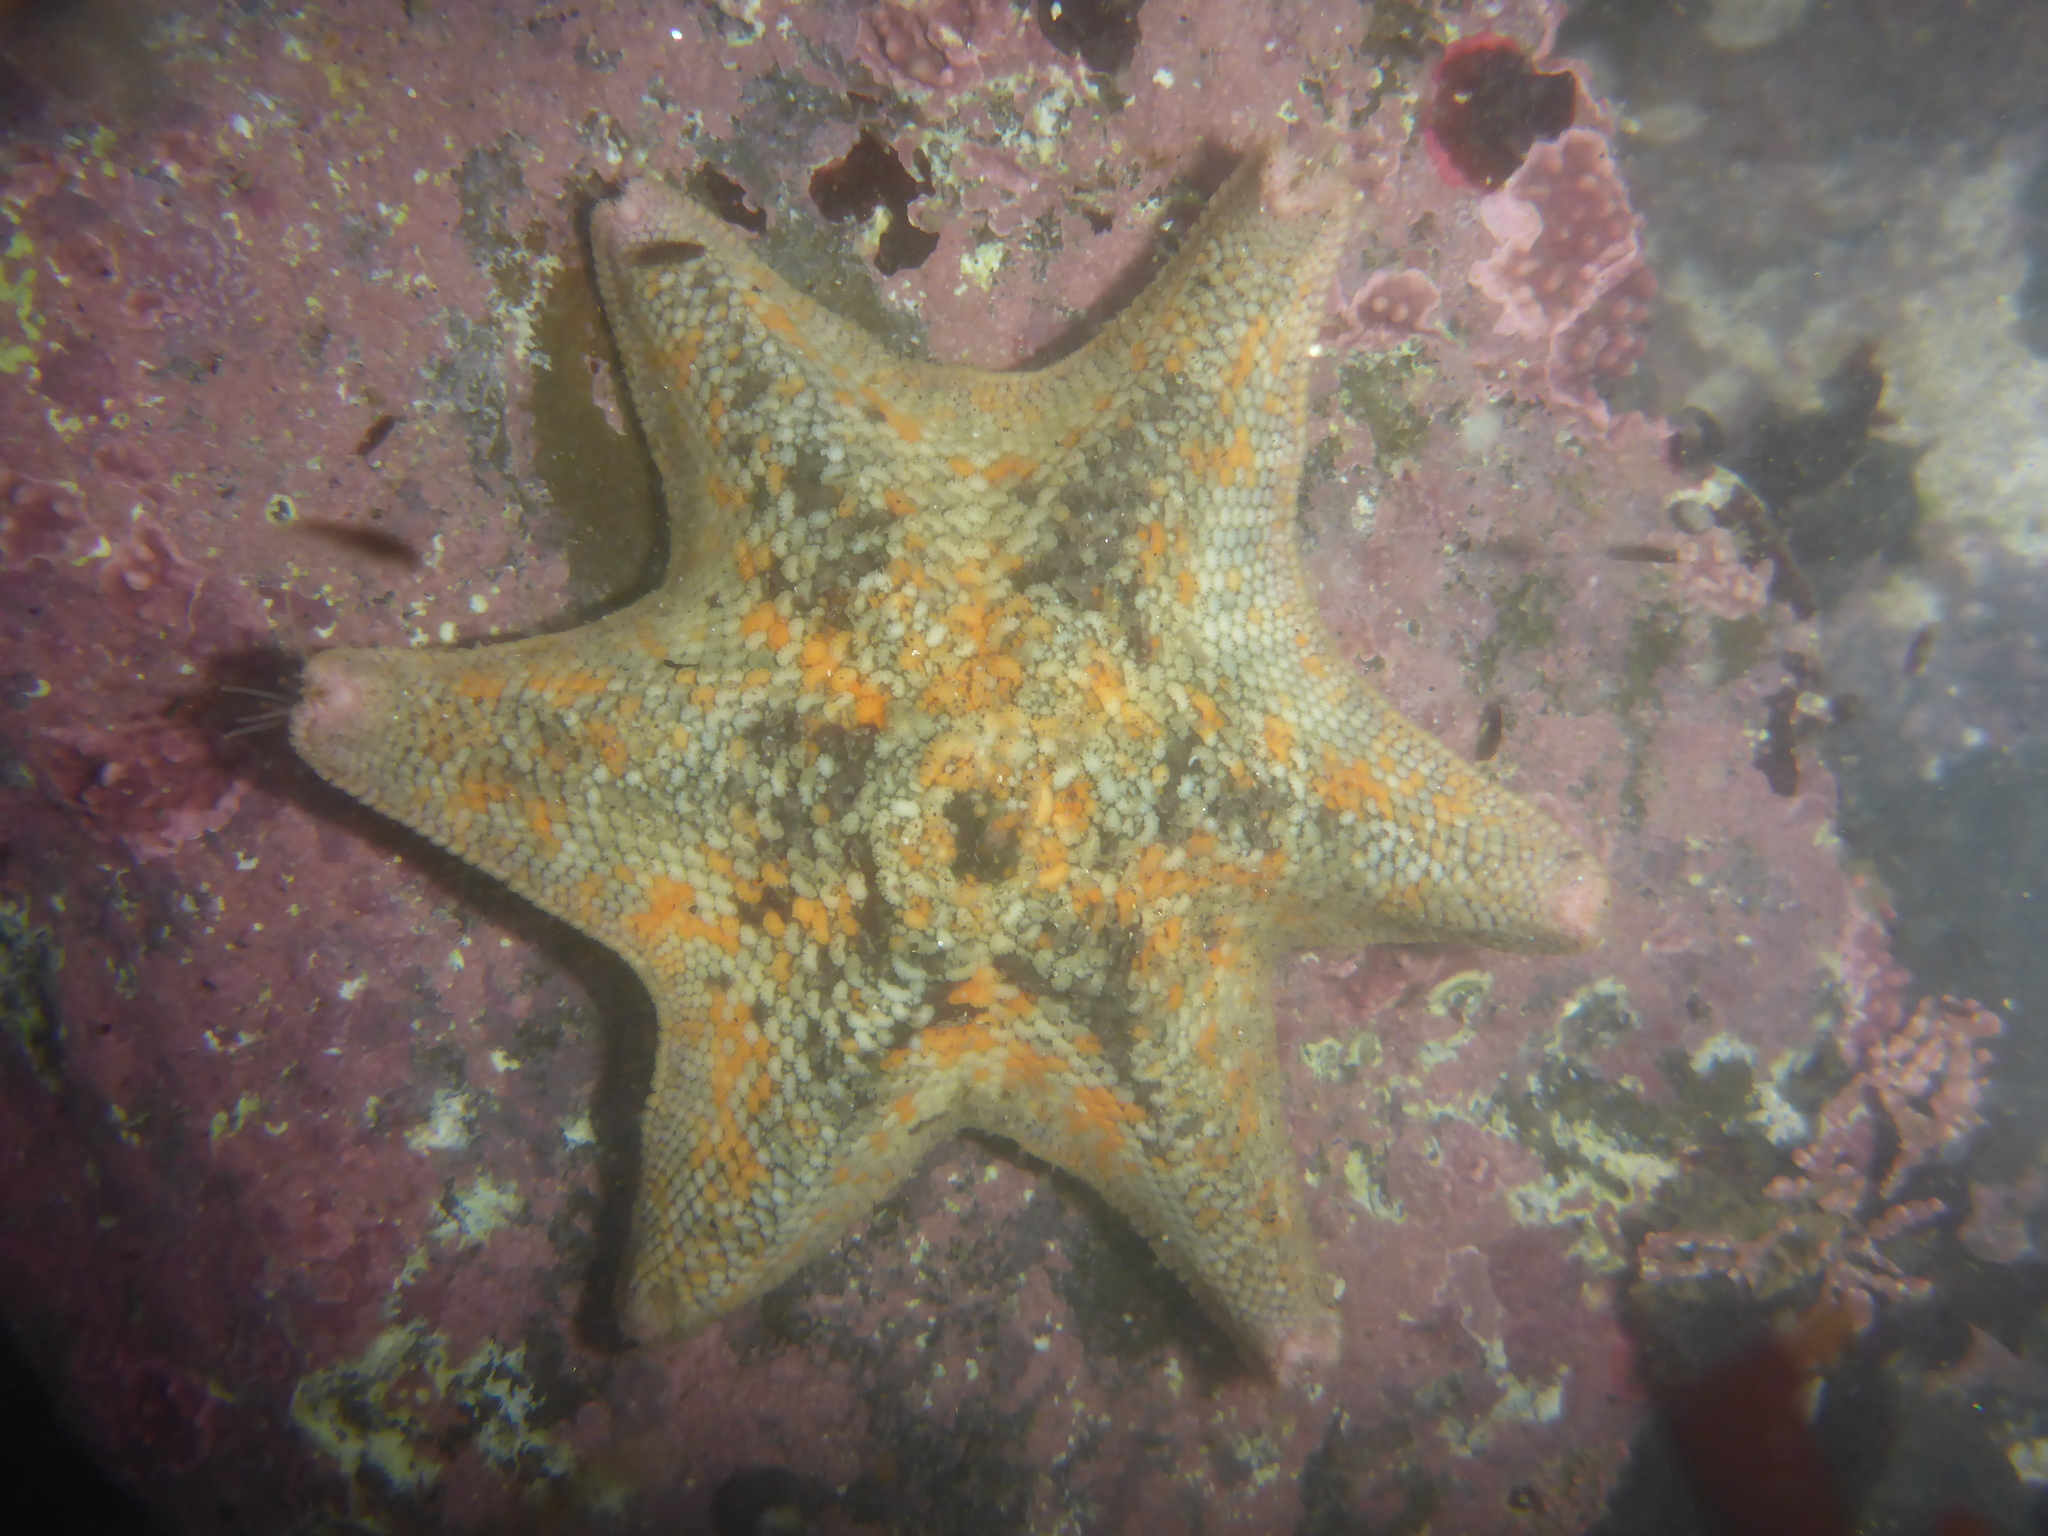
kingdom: Animalia
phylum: Echinodermata
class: Asteroidea
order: Valvatida
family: Asterinidae
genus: Patiria
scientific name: Patiria miniata
